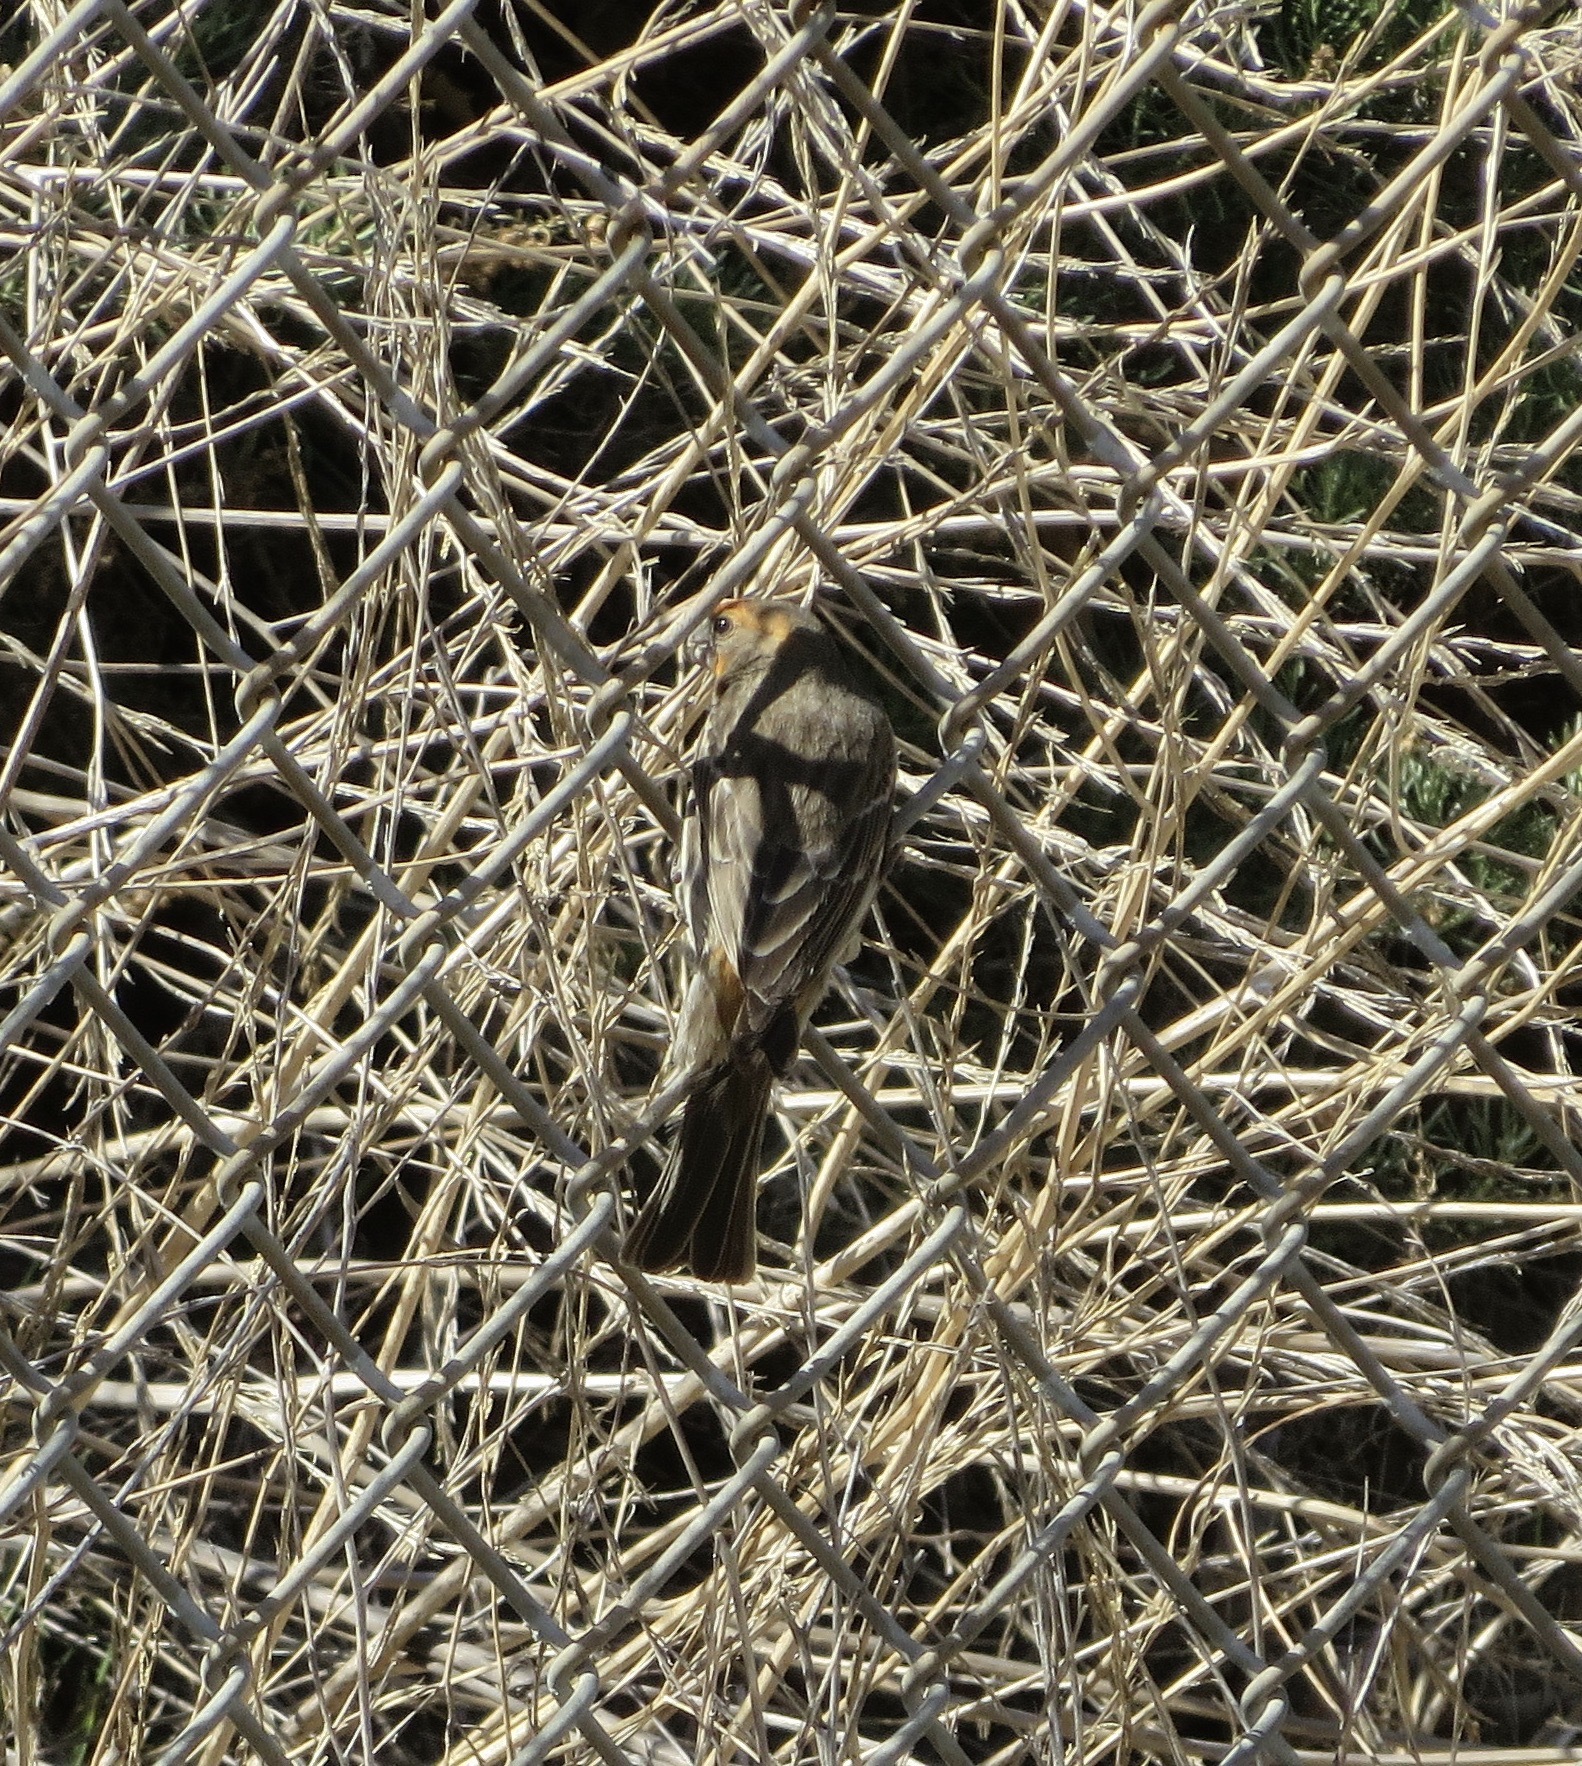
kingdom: Animalia
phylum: Chordata
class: Aves
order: Passeriformes
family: Fringillidae
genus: Haemorhous
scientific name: Haemorhous mexicanus
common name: House finch
